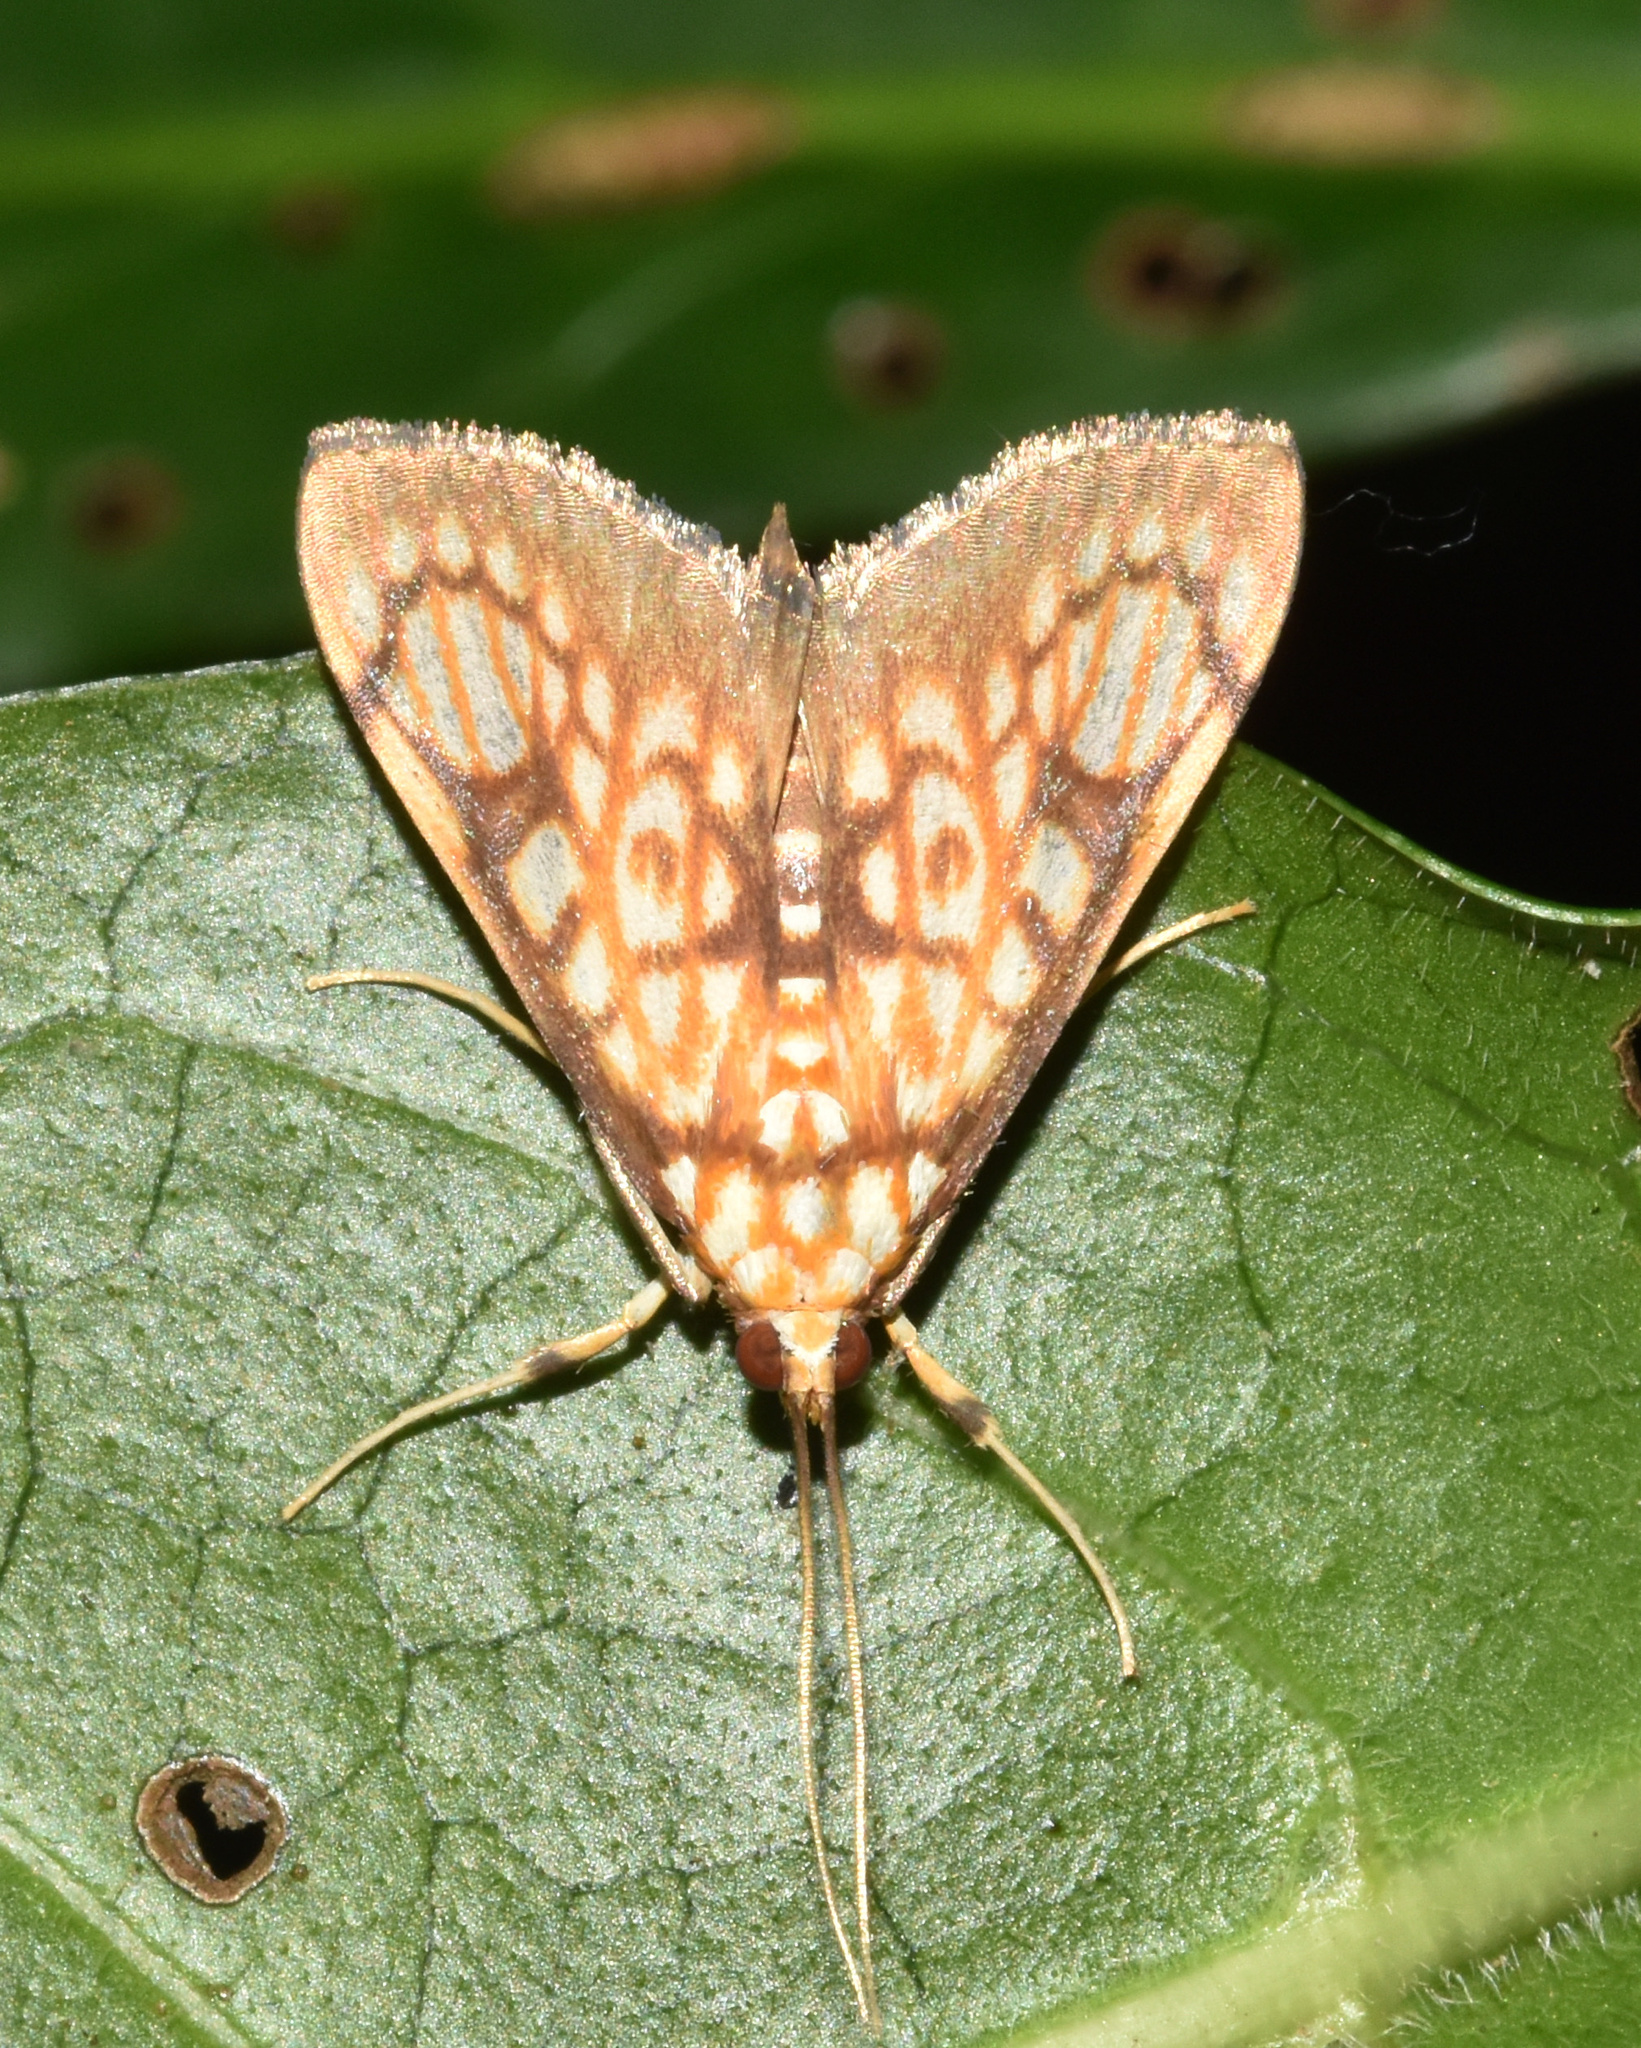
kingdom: Animalia
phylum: Arthropoda
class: Insecta
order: Lepidoptera
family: Crambidae
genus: Chalcidoptera
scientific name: Chalcidoptera rufilinealis
